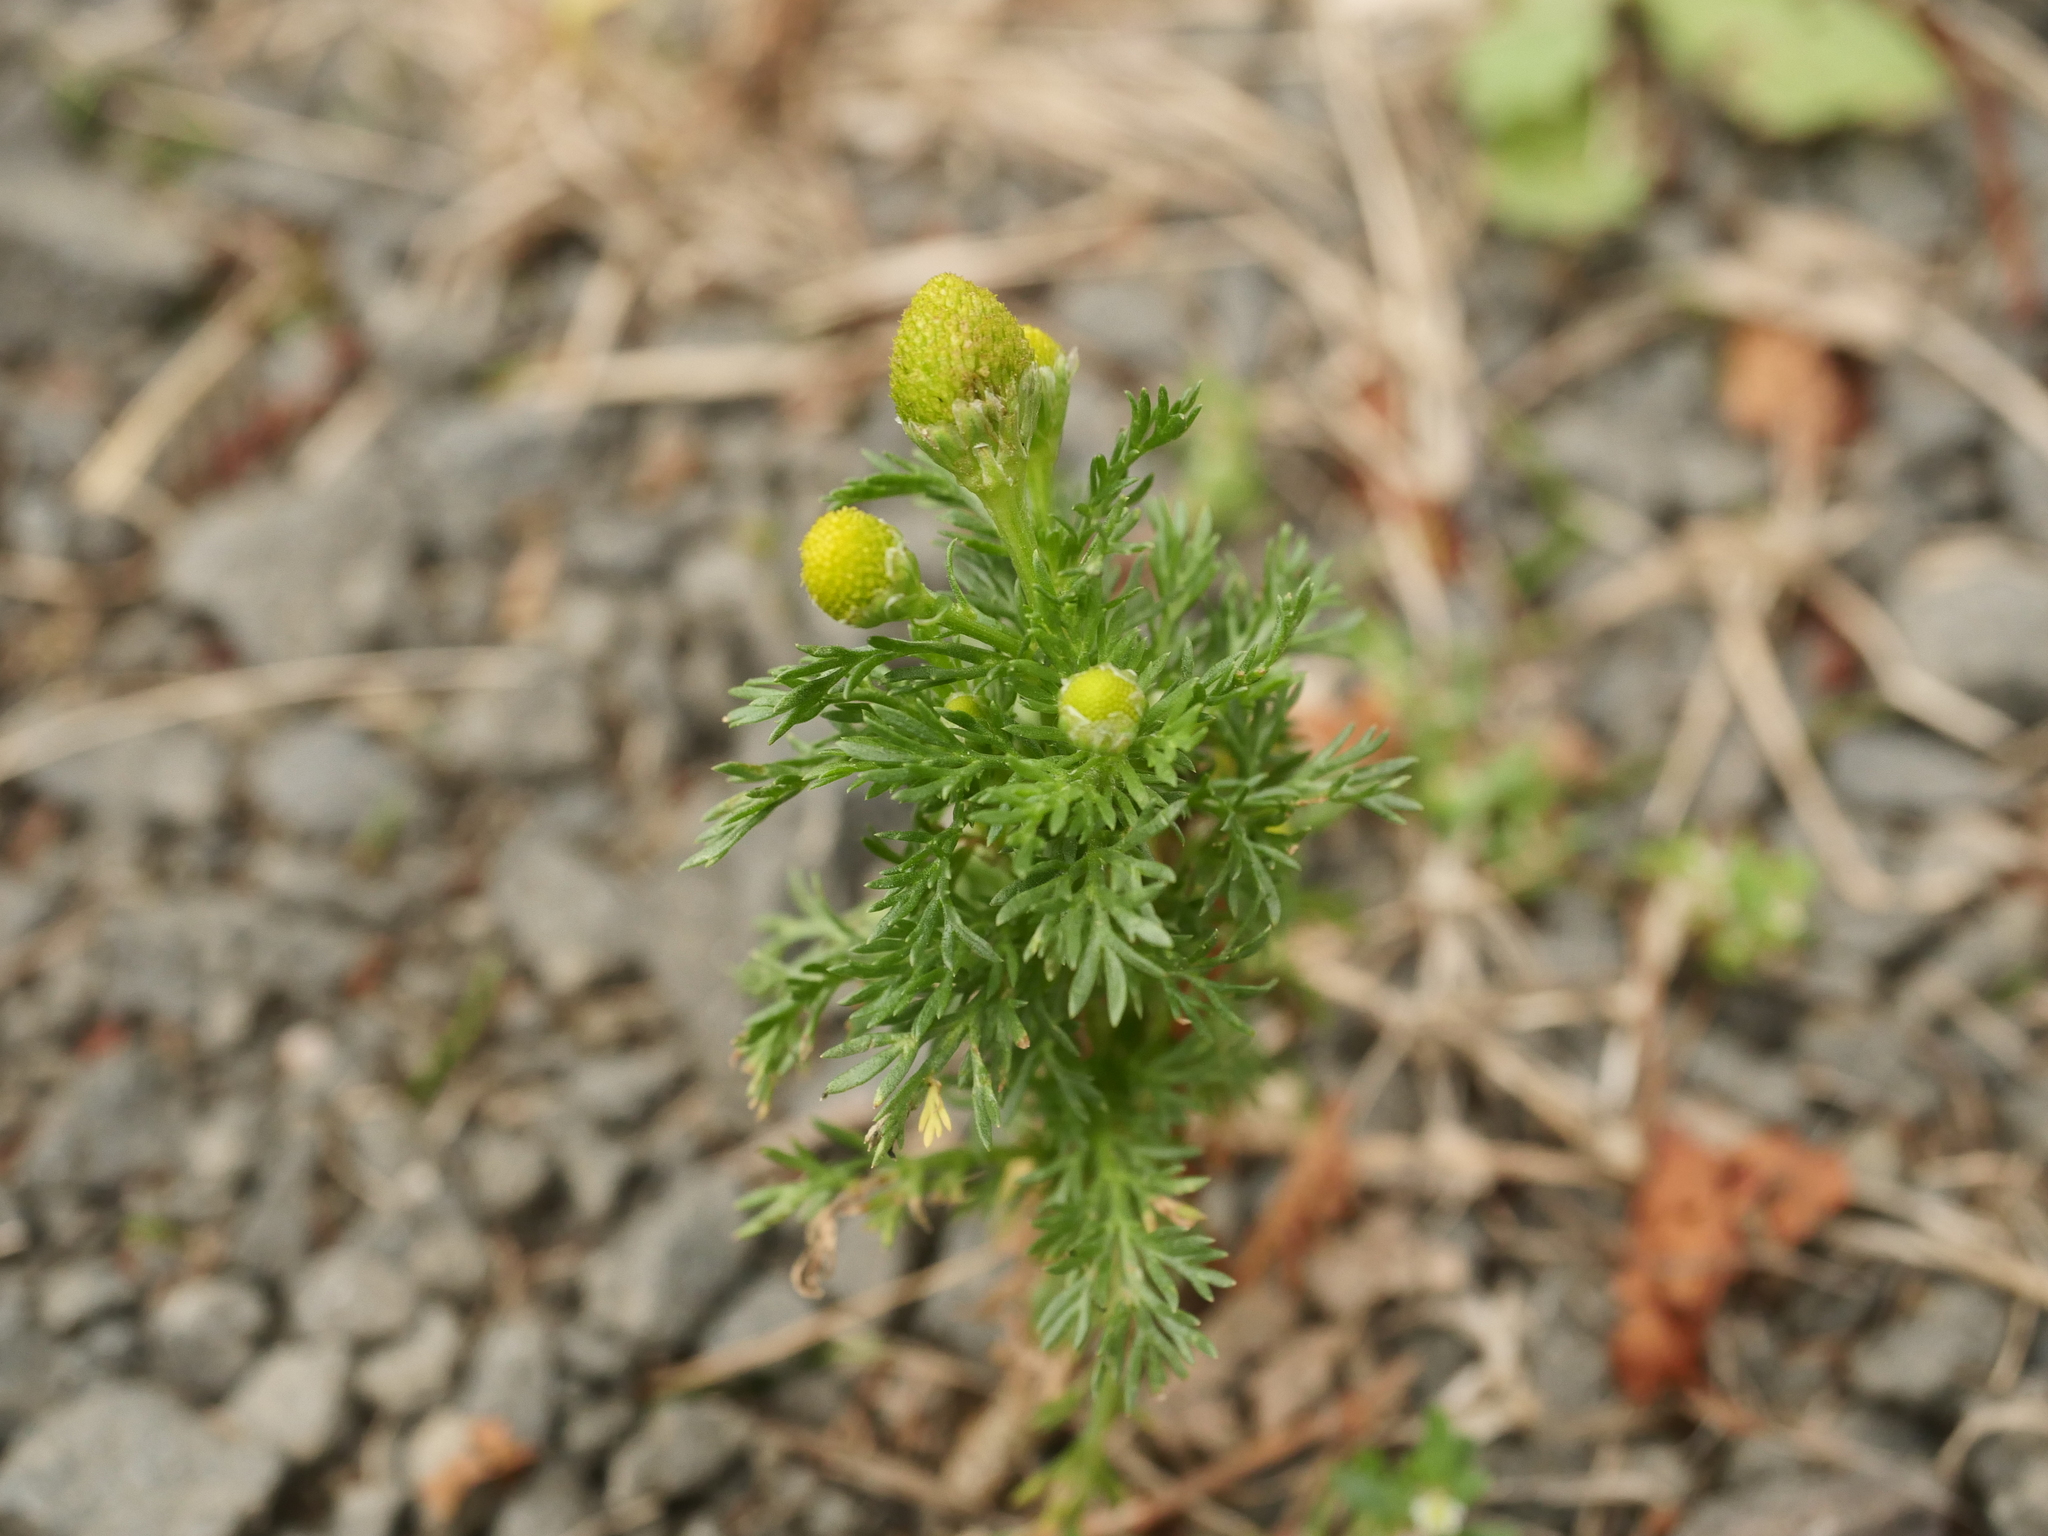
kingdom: Plantae
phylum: Tracheophyta
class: Magnoliopsida
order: Asterales
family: Asteraceae
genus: Matricaria
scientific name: Matricaria discoidea
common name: Disc mayweed
